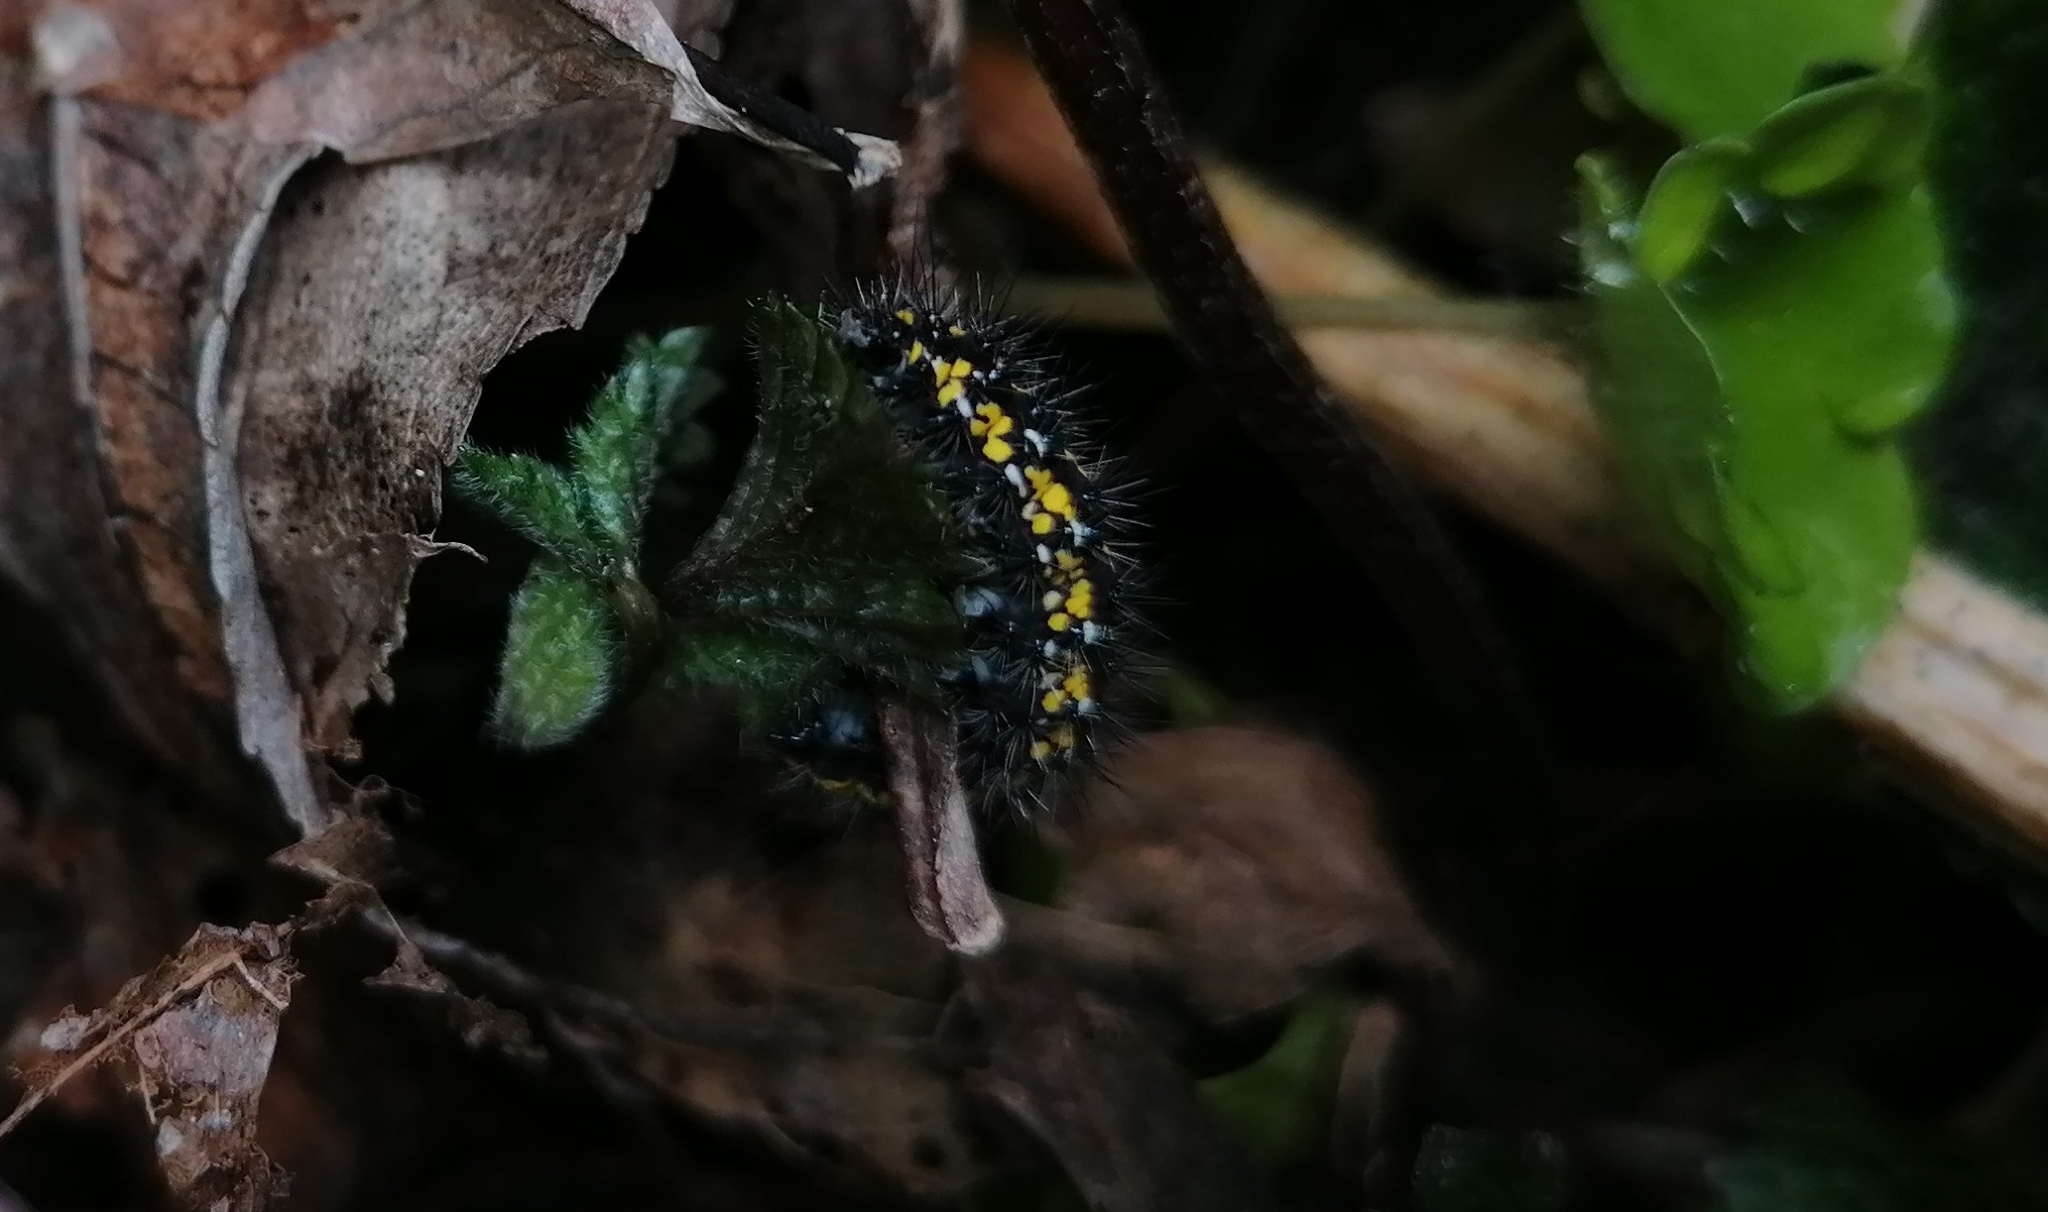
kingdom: Animalia
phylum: Arthropoda
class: Insecta
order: Lepidoptera
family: Erebidae
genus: Callimorpha
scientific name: Callimorpha dominula
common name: Scarlet tiger
